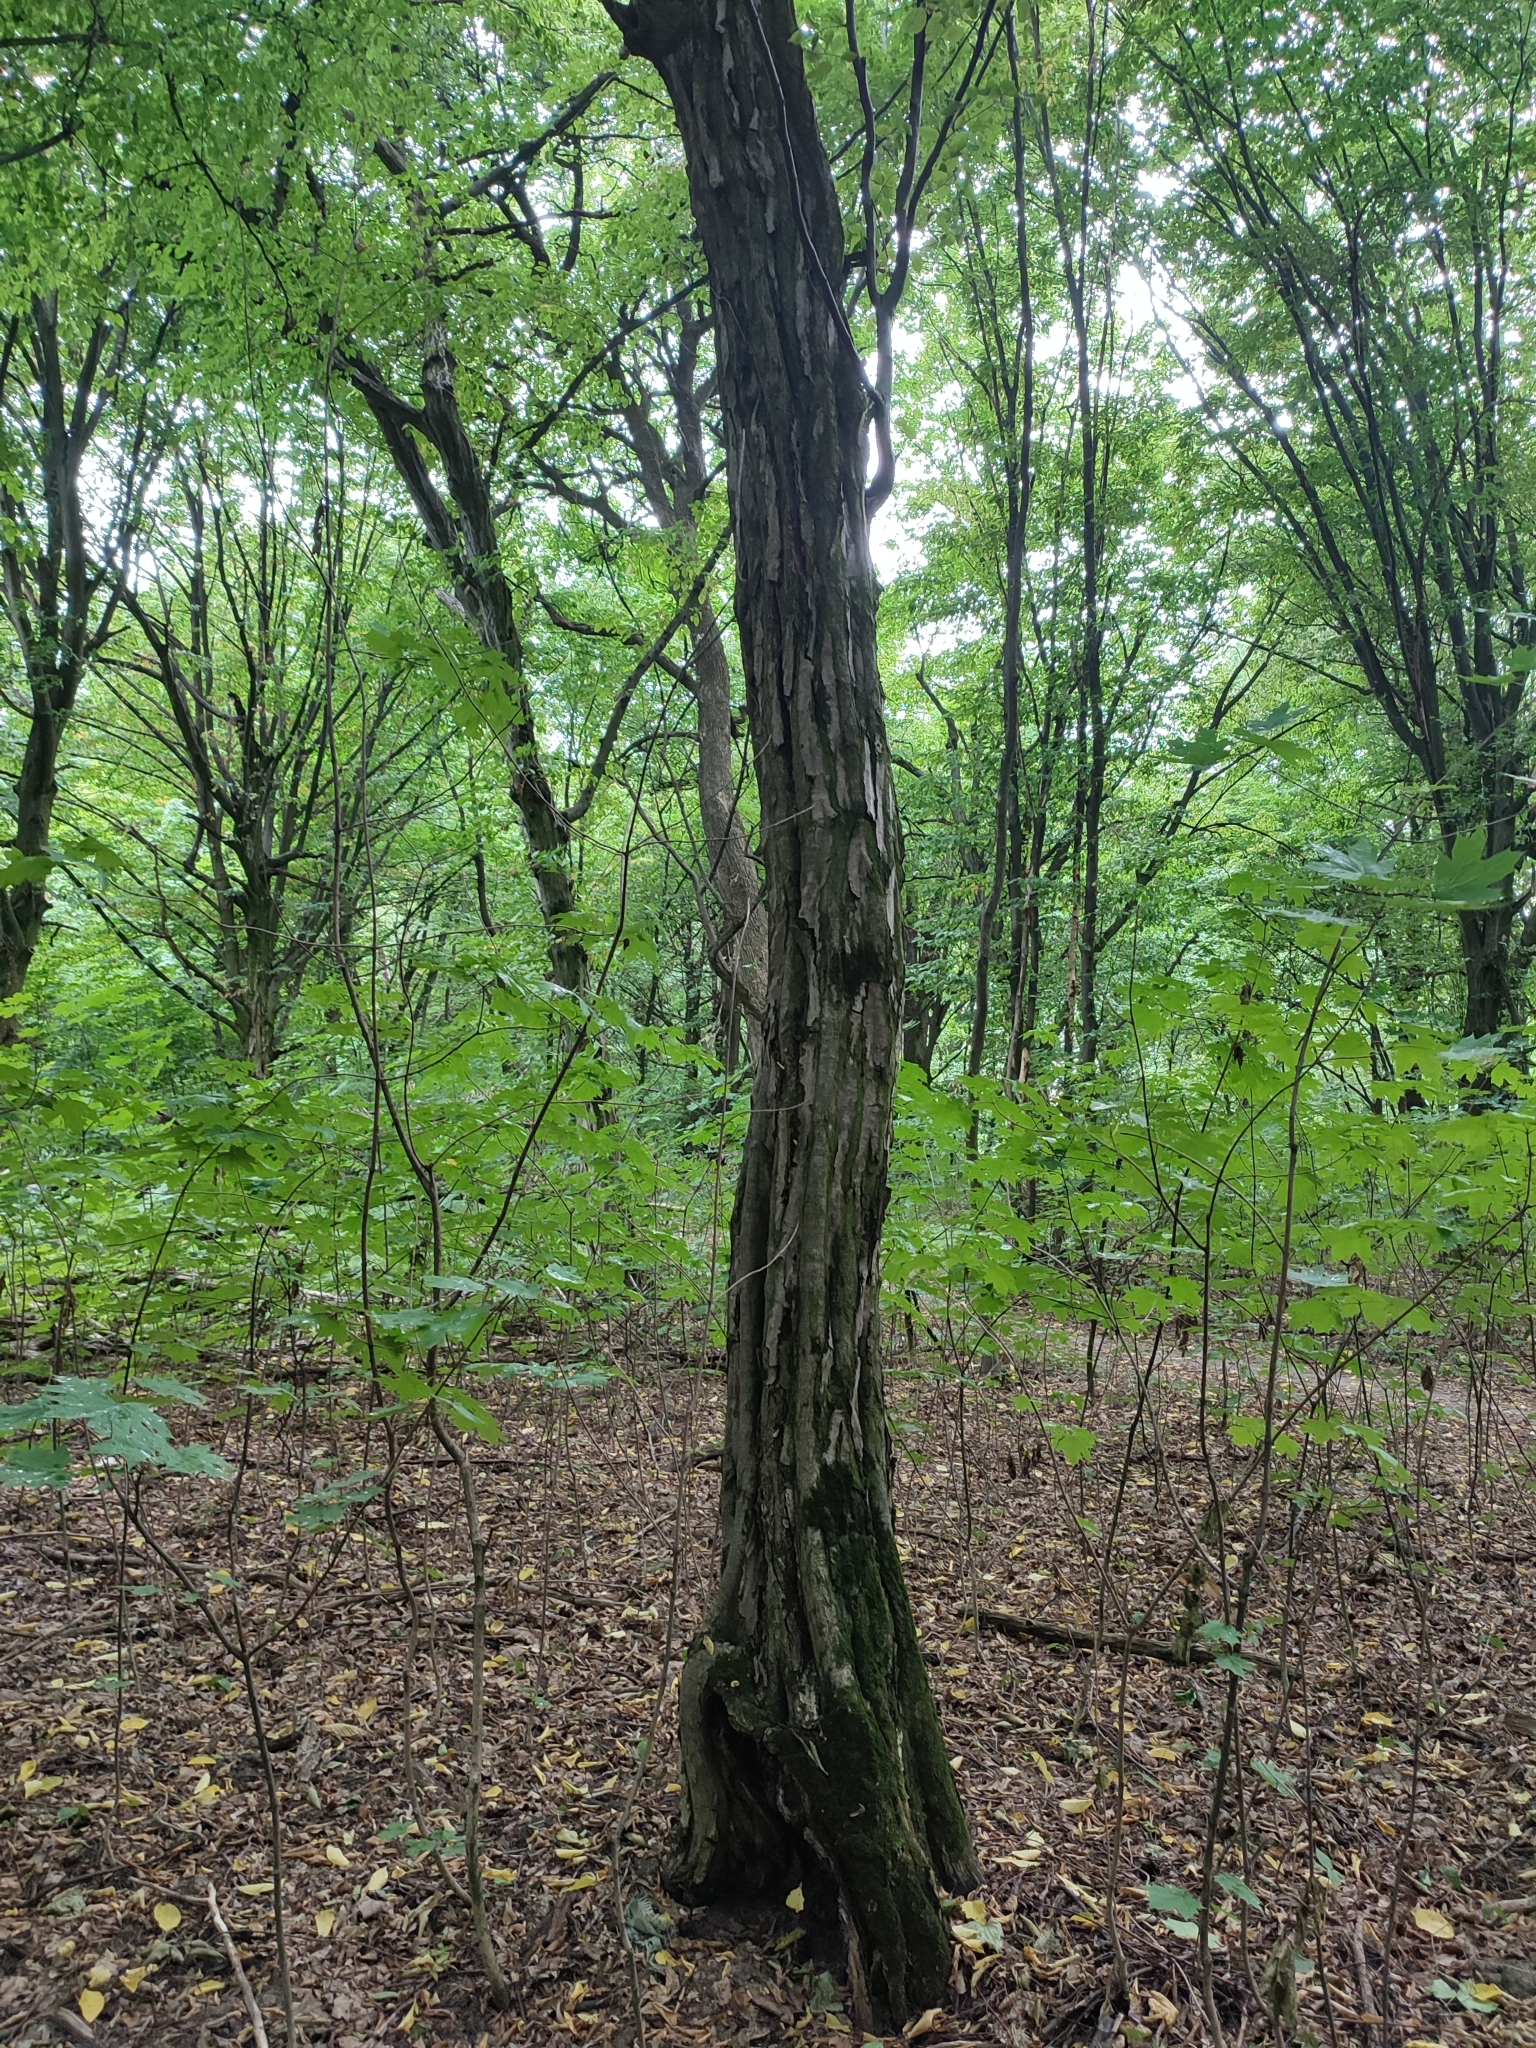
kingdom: Plantae
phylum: Tracheophyta
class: Magnoliopsida
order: Fagales
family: Betulaceae
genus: Carpinus
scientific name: Carpinus betulus
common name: Hornbeam
